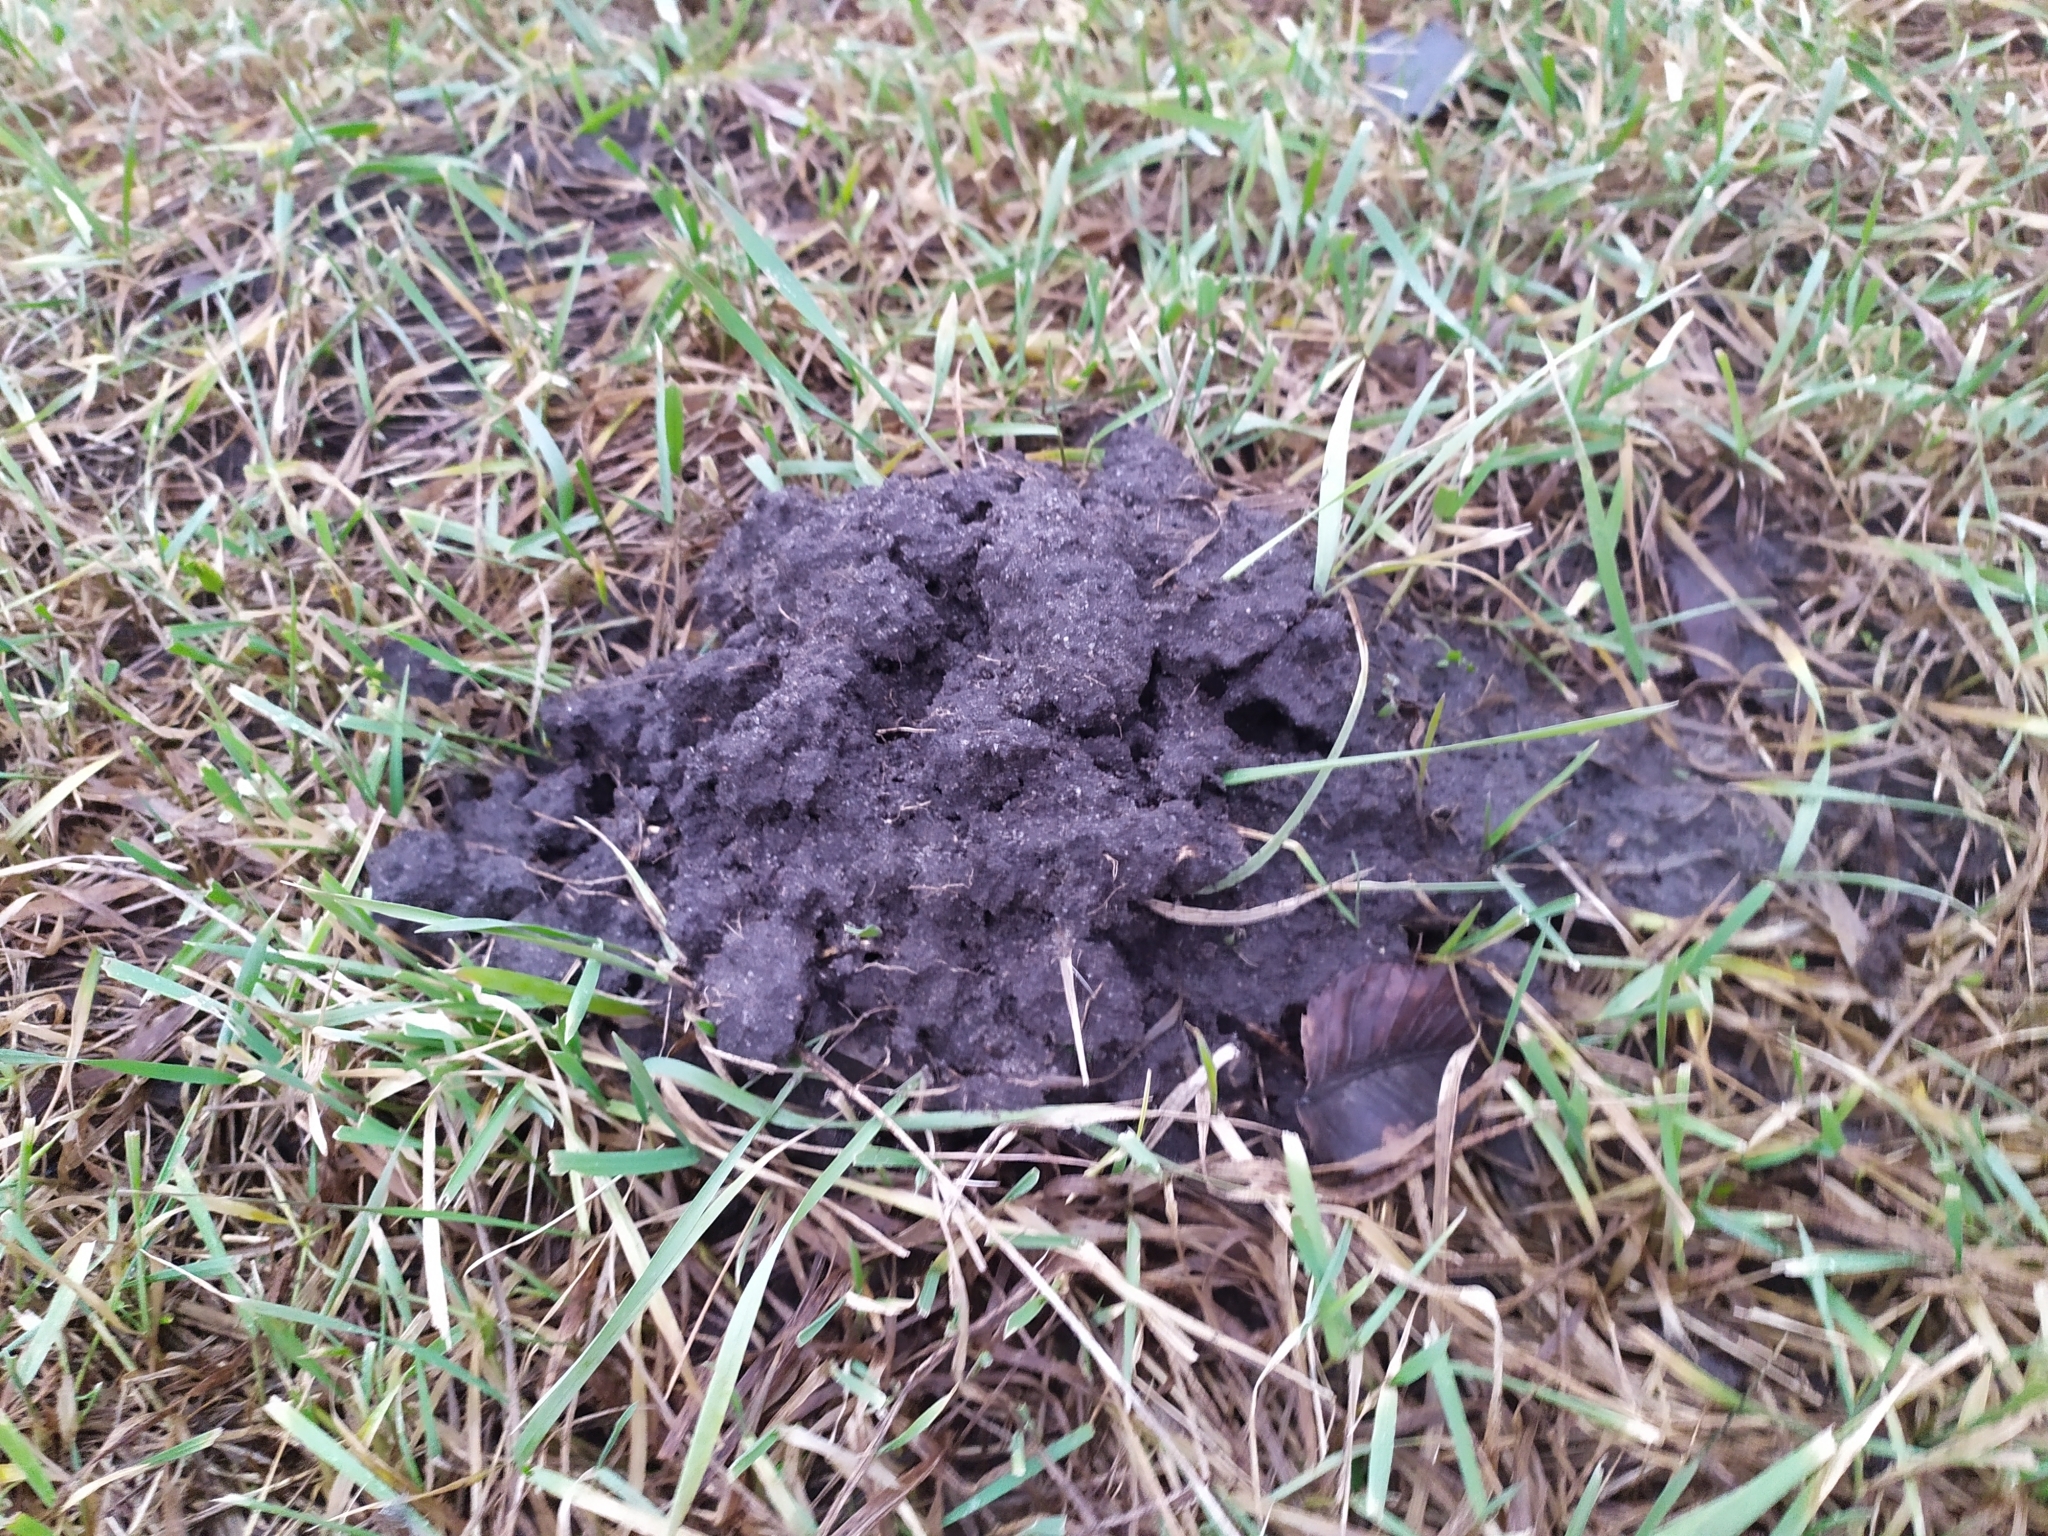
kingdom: Animalia
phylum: Chordata
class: Mammalia
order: Soricomorpha
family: Talpidae
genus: Talpa
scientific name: Talpa europaea
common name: European mole
